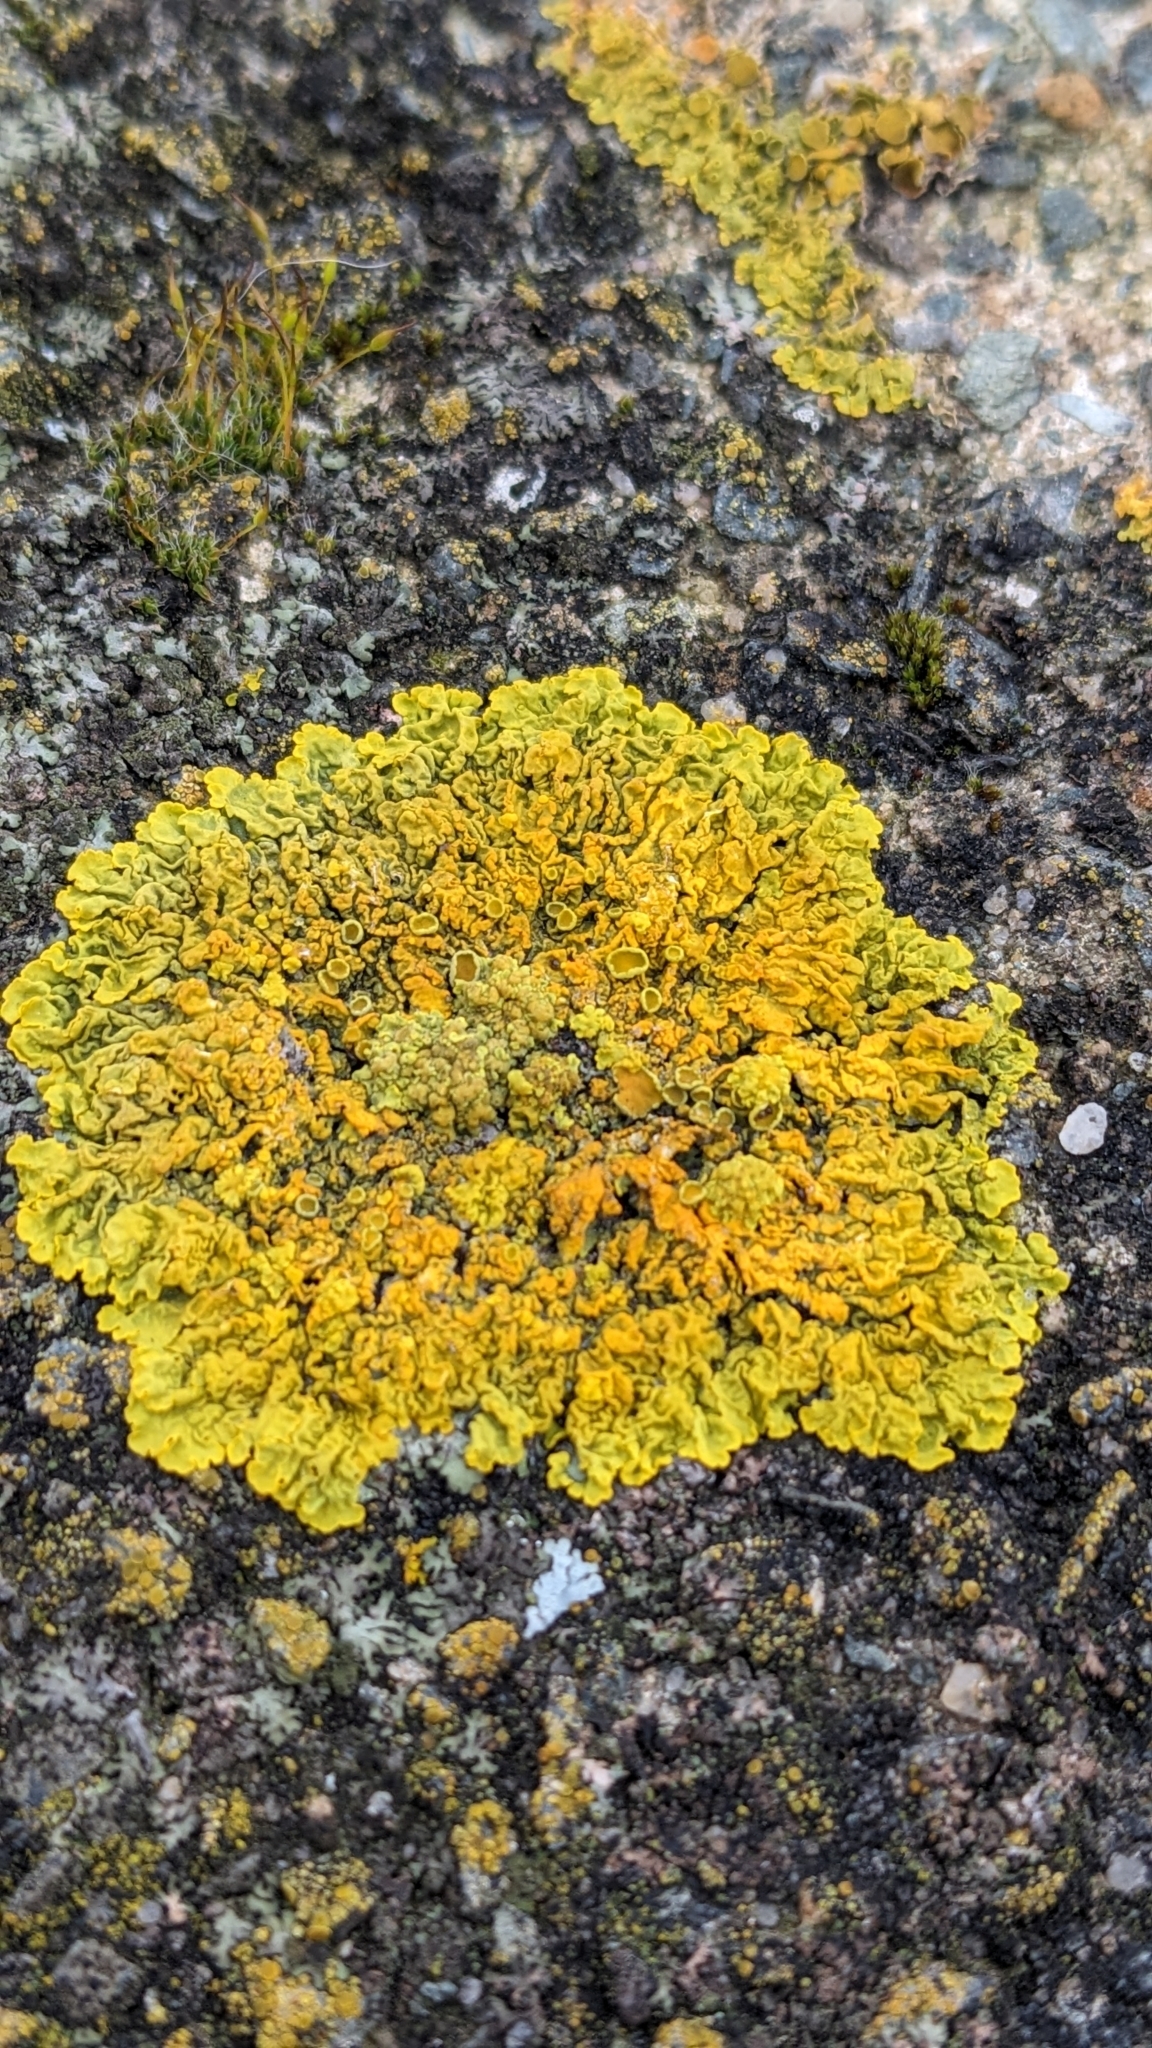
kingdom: Fungi
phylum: Ascomycota
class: Lecanoromycetes
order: Teloschistales
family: Teloschistaceae
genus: Xanthoria
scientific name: Xanthoria calcicola
